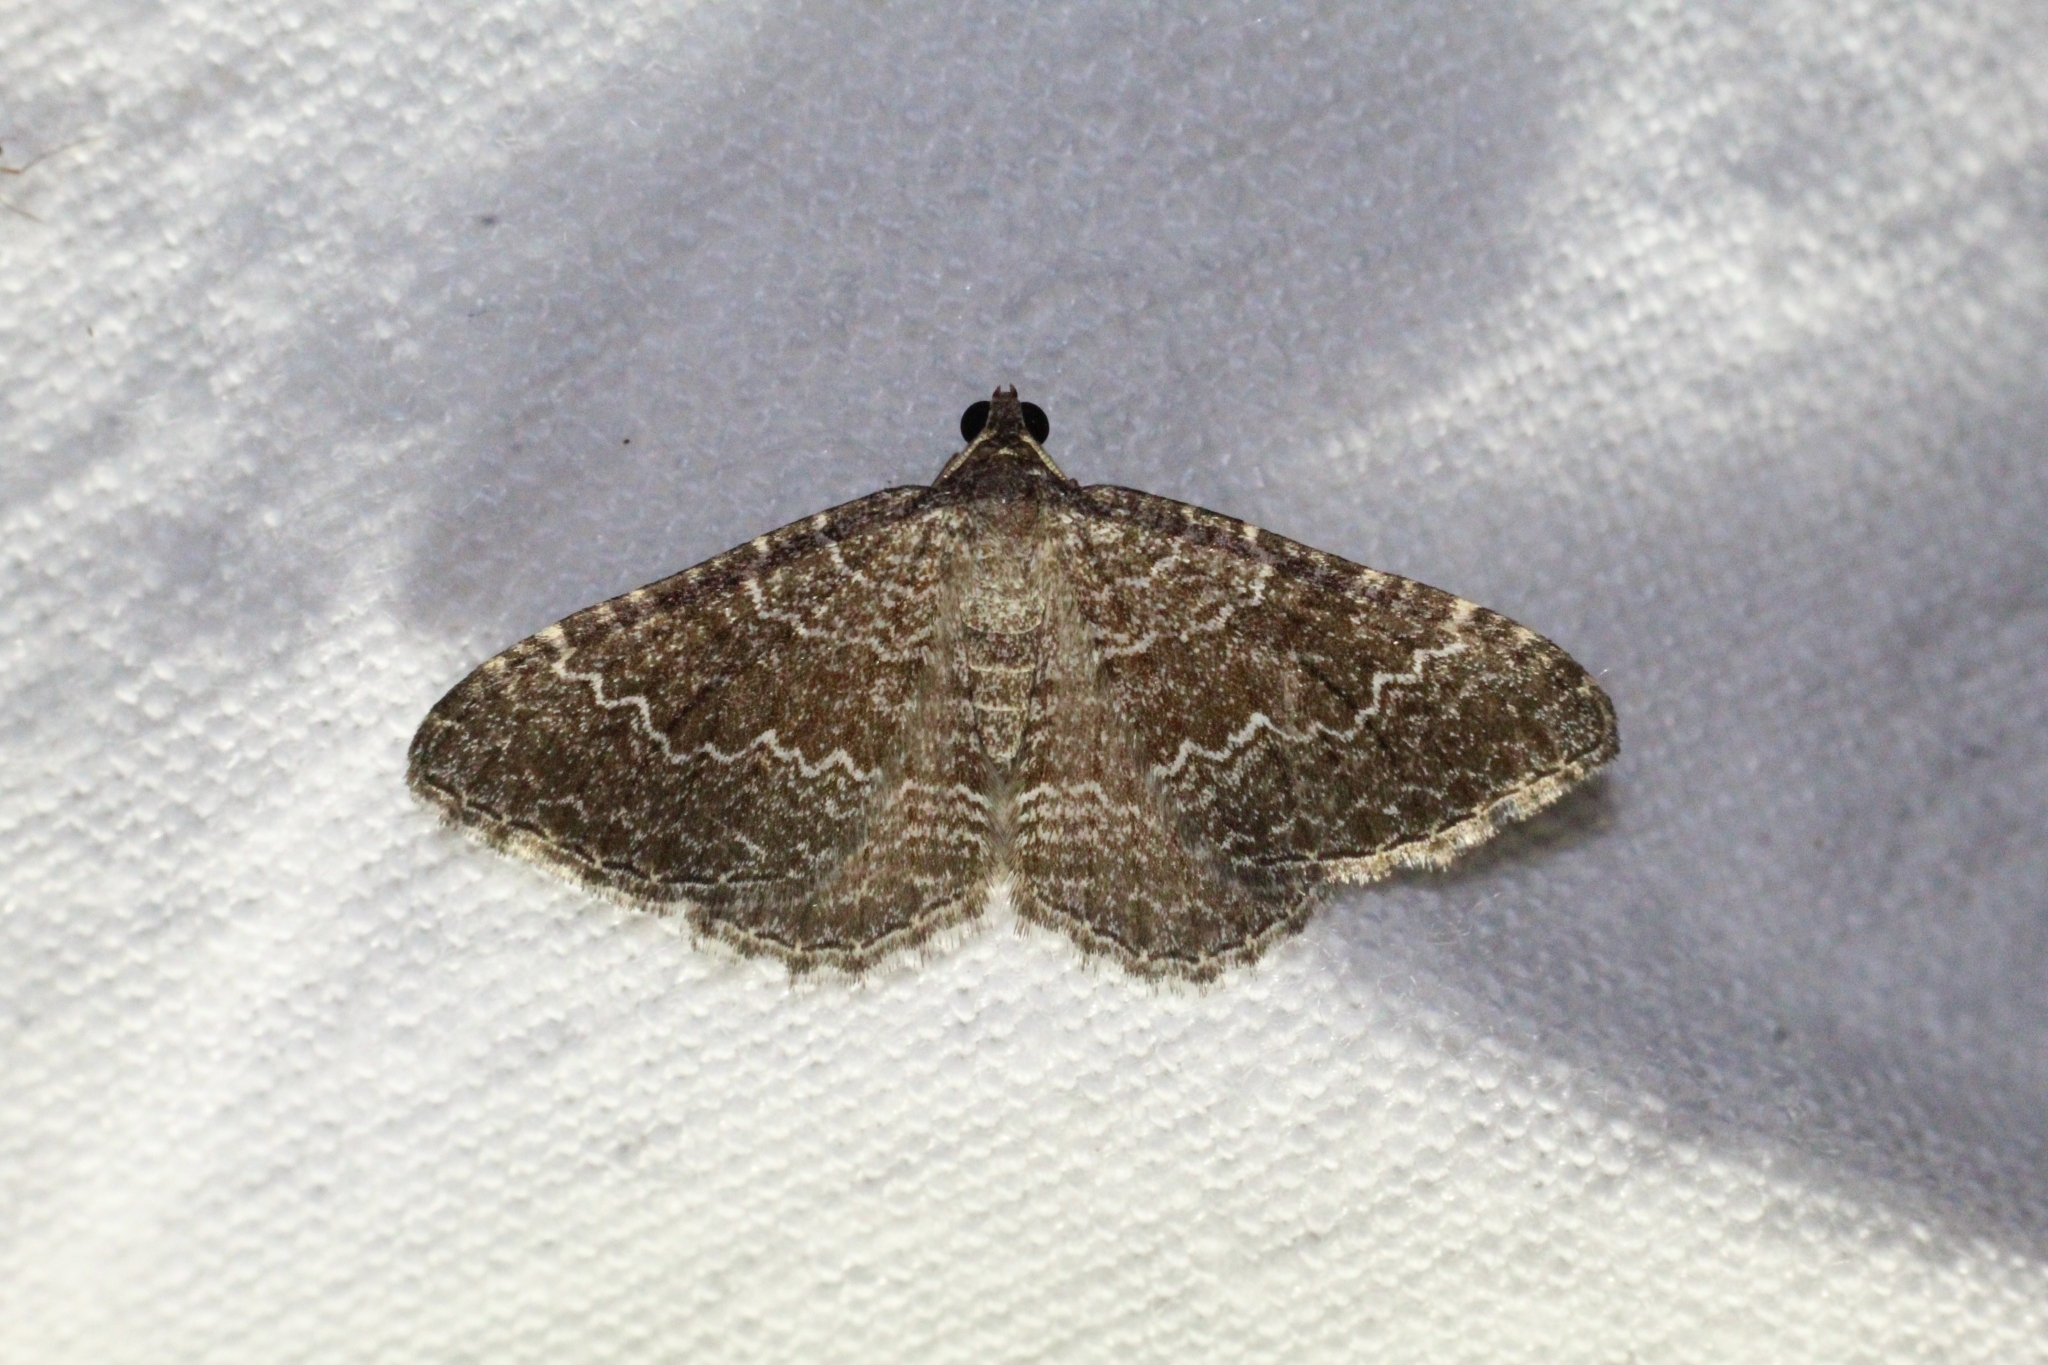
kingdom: Animalia
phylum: Arthropoda
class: Insecta
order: Lepidoptera
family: Geometridae
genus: Cataclysme
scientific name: Cataclysme riguata
